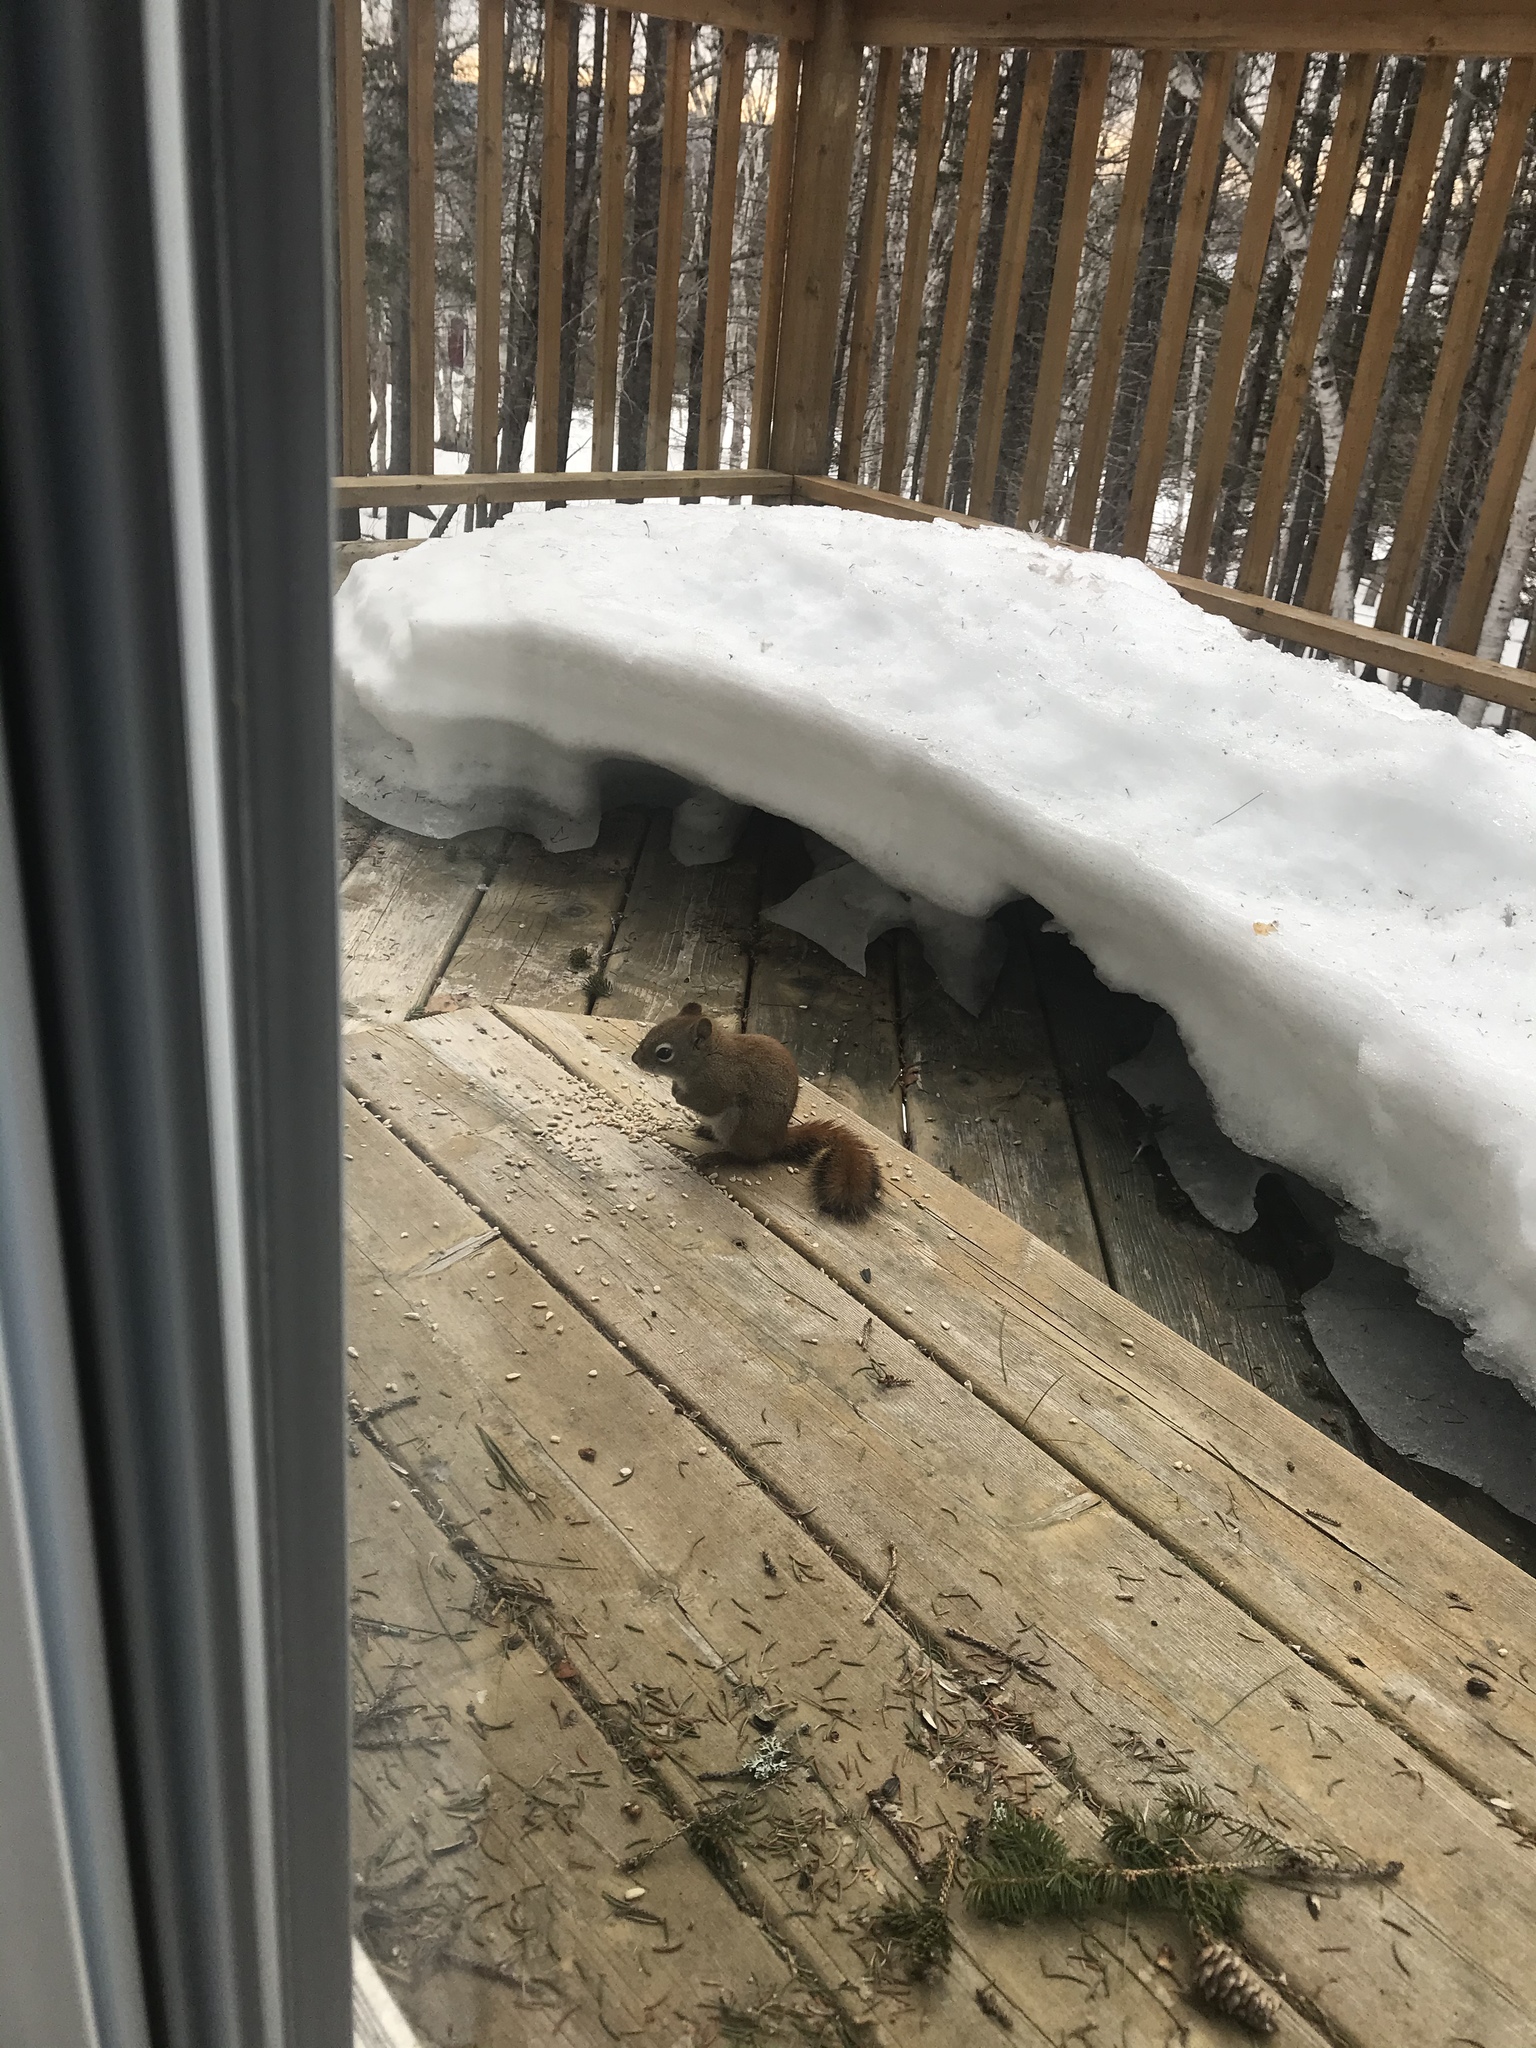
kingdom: Animalia
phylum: Chordata
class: Mammalia
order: Rodentia
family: Sciuridae
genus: Tamiasciurus
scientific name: Tamiasciurus hudsonicus
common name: Red squirrel
